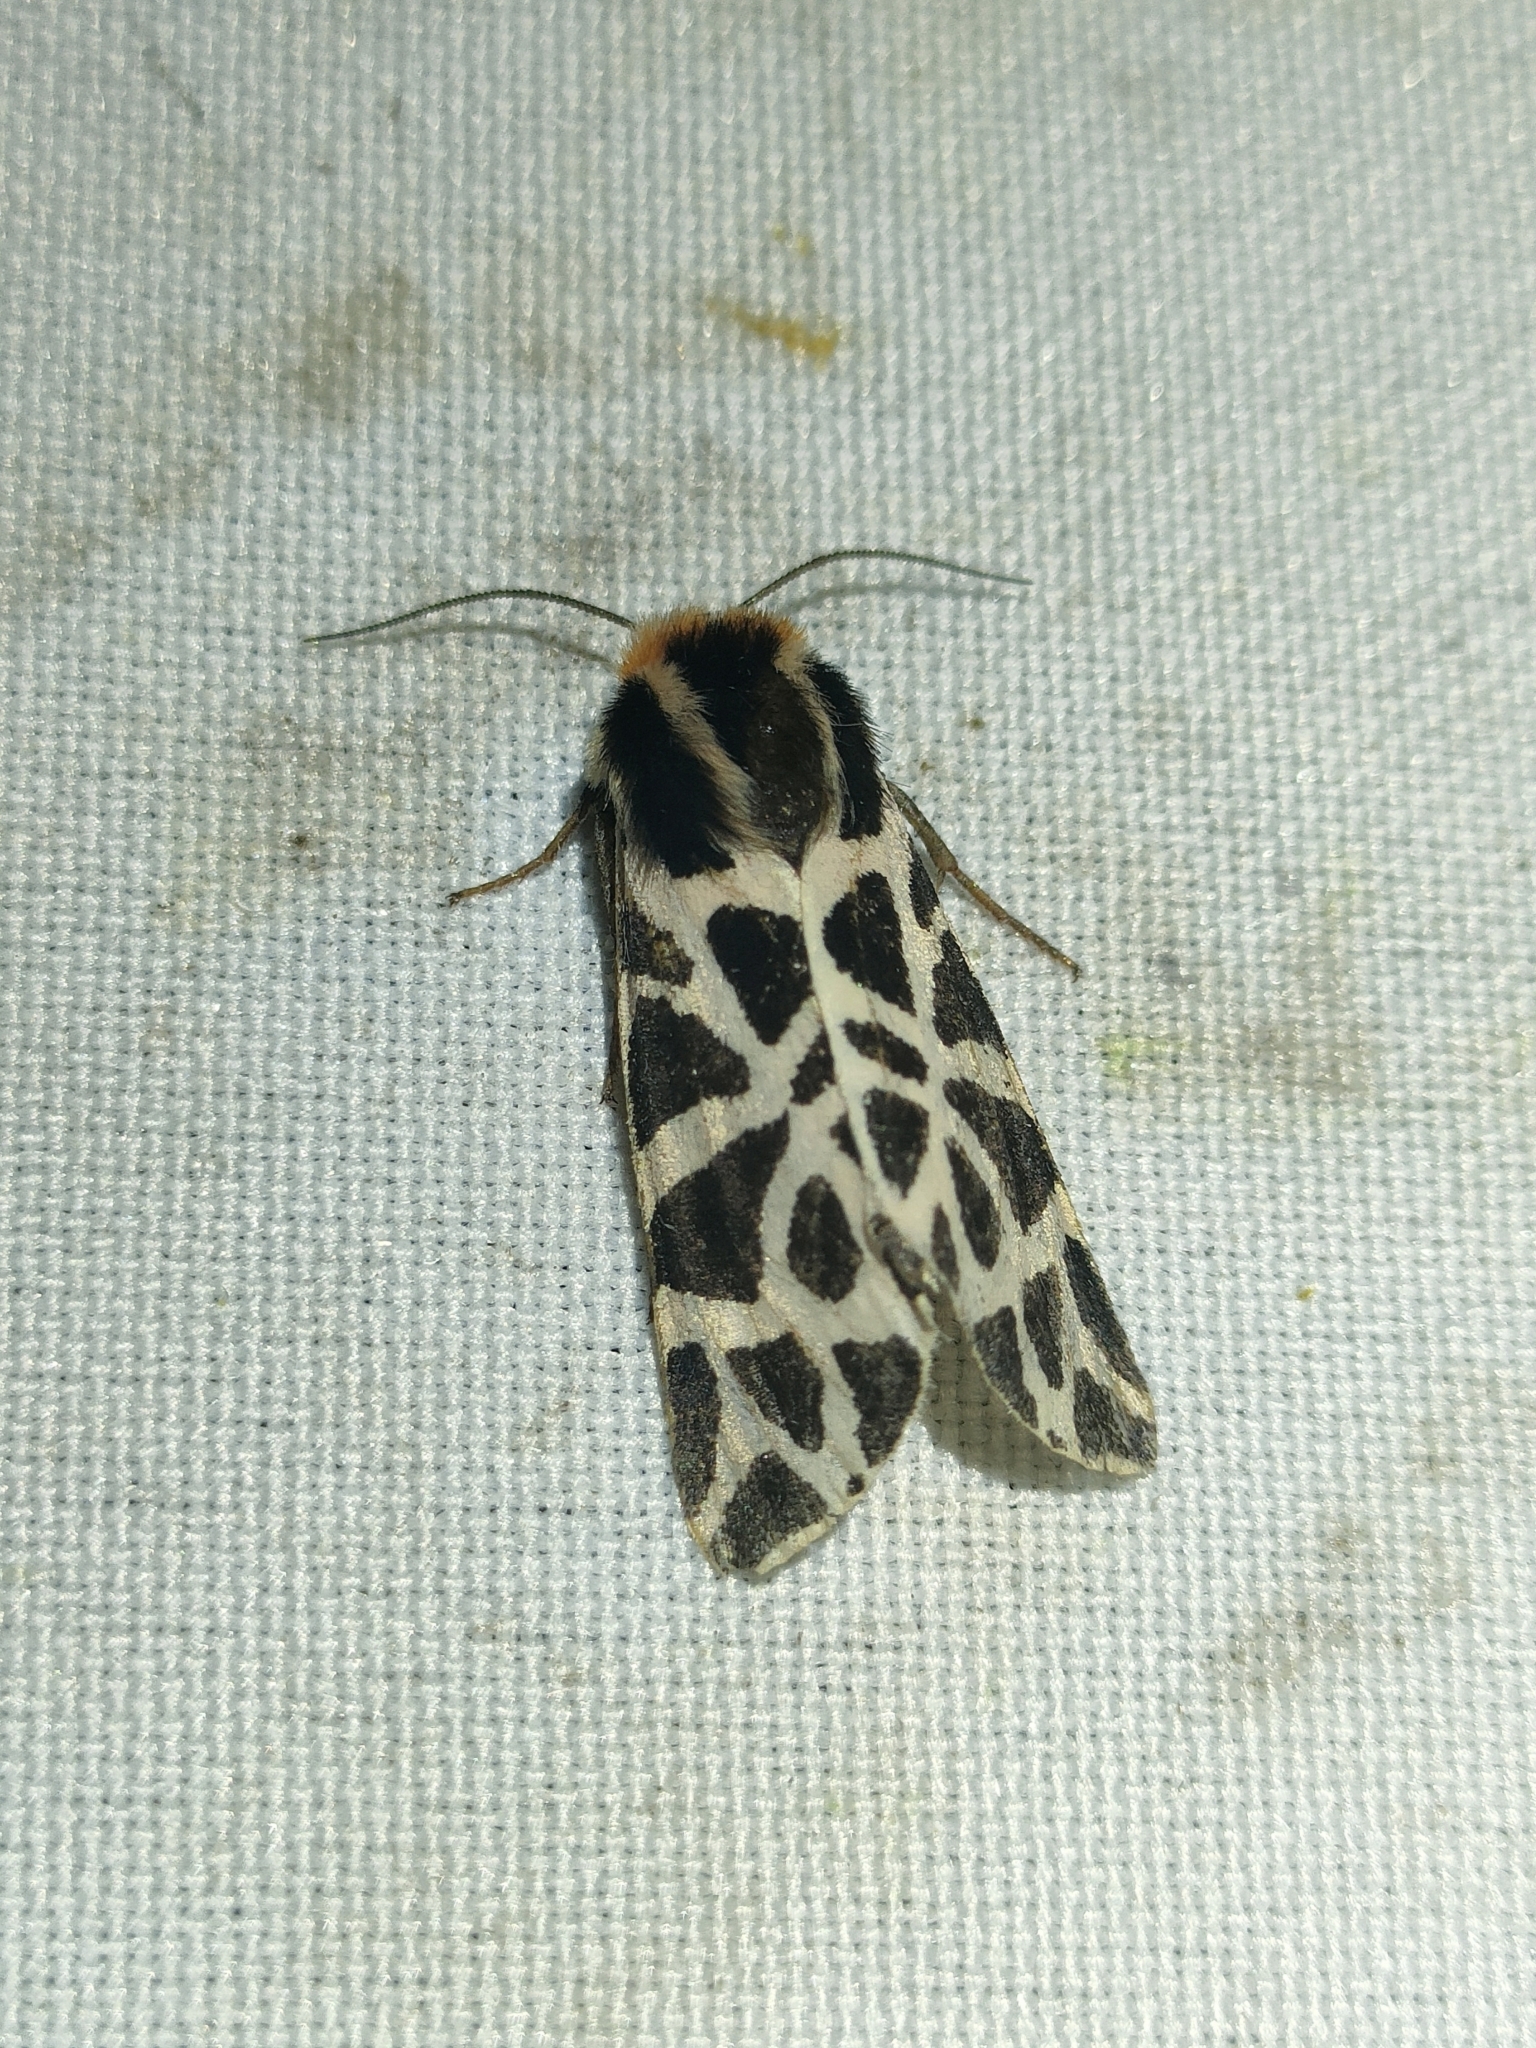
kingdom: Animalia
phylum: Arthropoda
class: Insecta
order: Lepidoptera
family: Erebidae
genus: Cymbalophora
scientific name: Cymbalophora pudica
